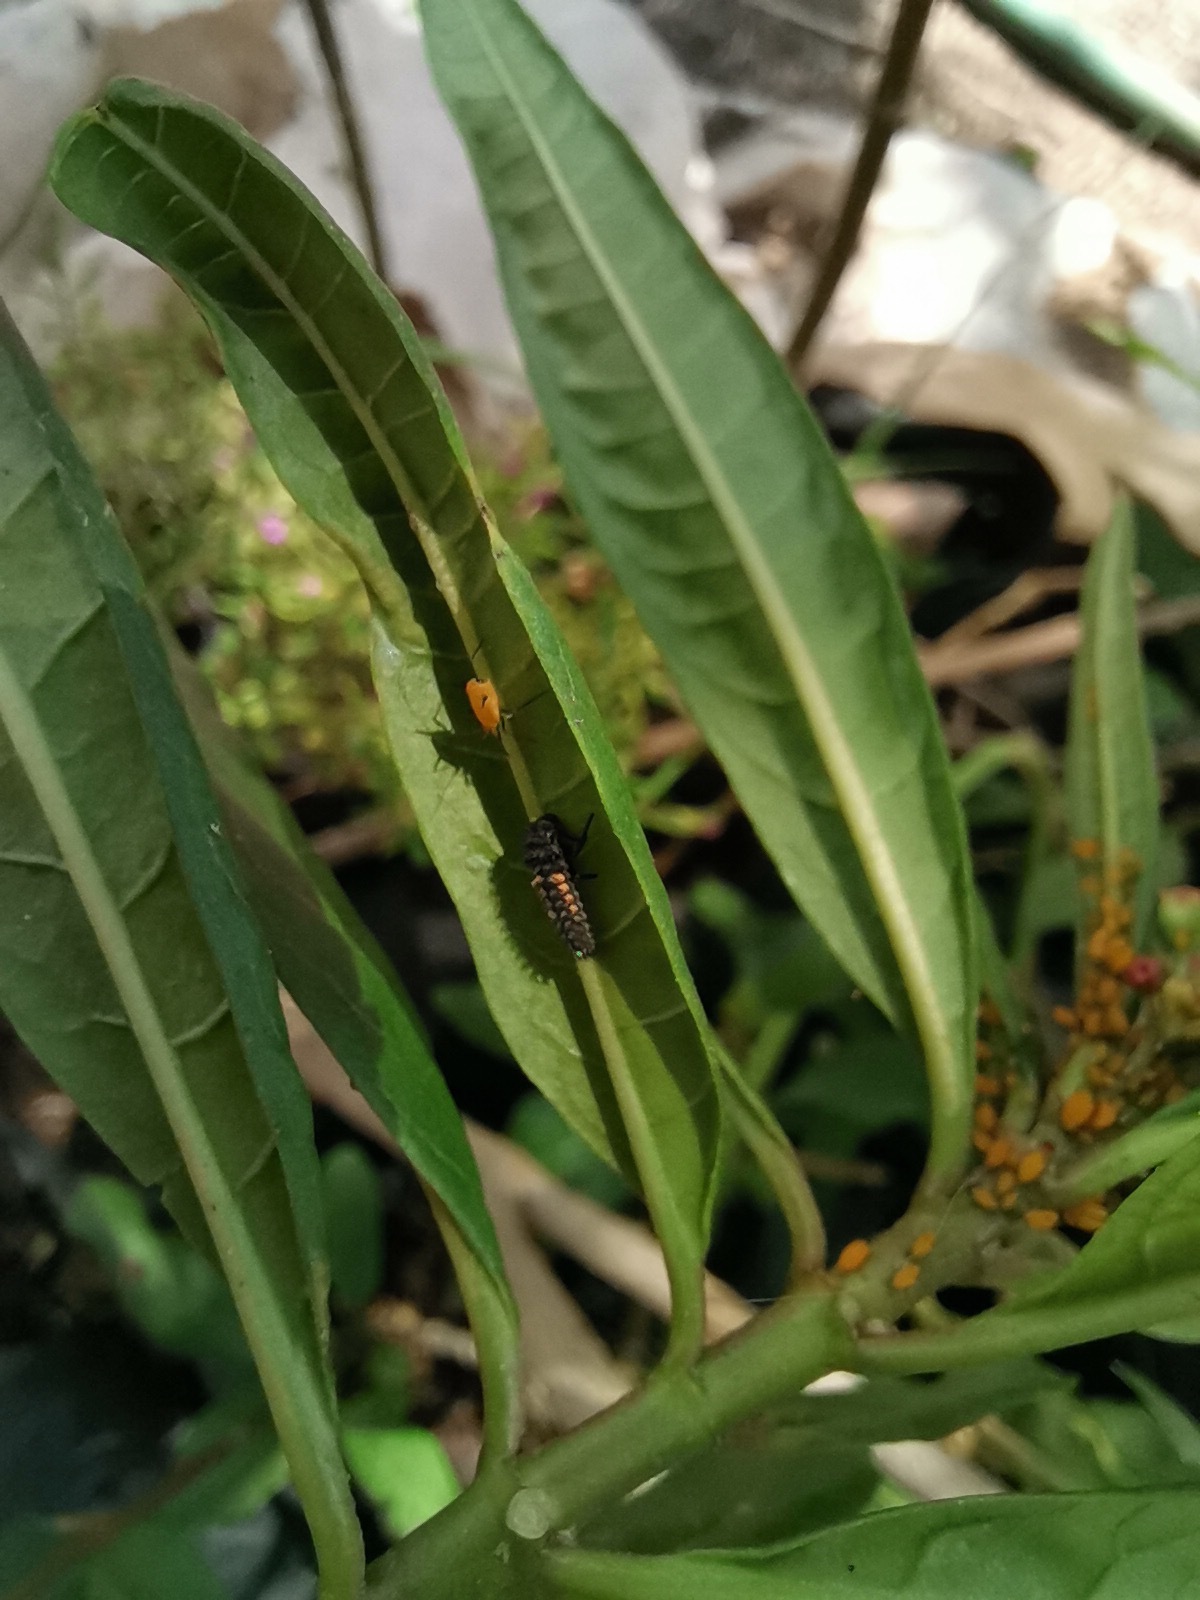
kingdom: Animalia
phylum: Arthropoda
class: Insecta
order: Hemiptera
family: Aphididae
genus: Aphis
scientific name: Aphis nerii
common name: Oleander aphid
